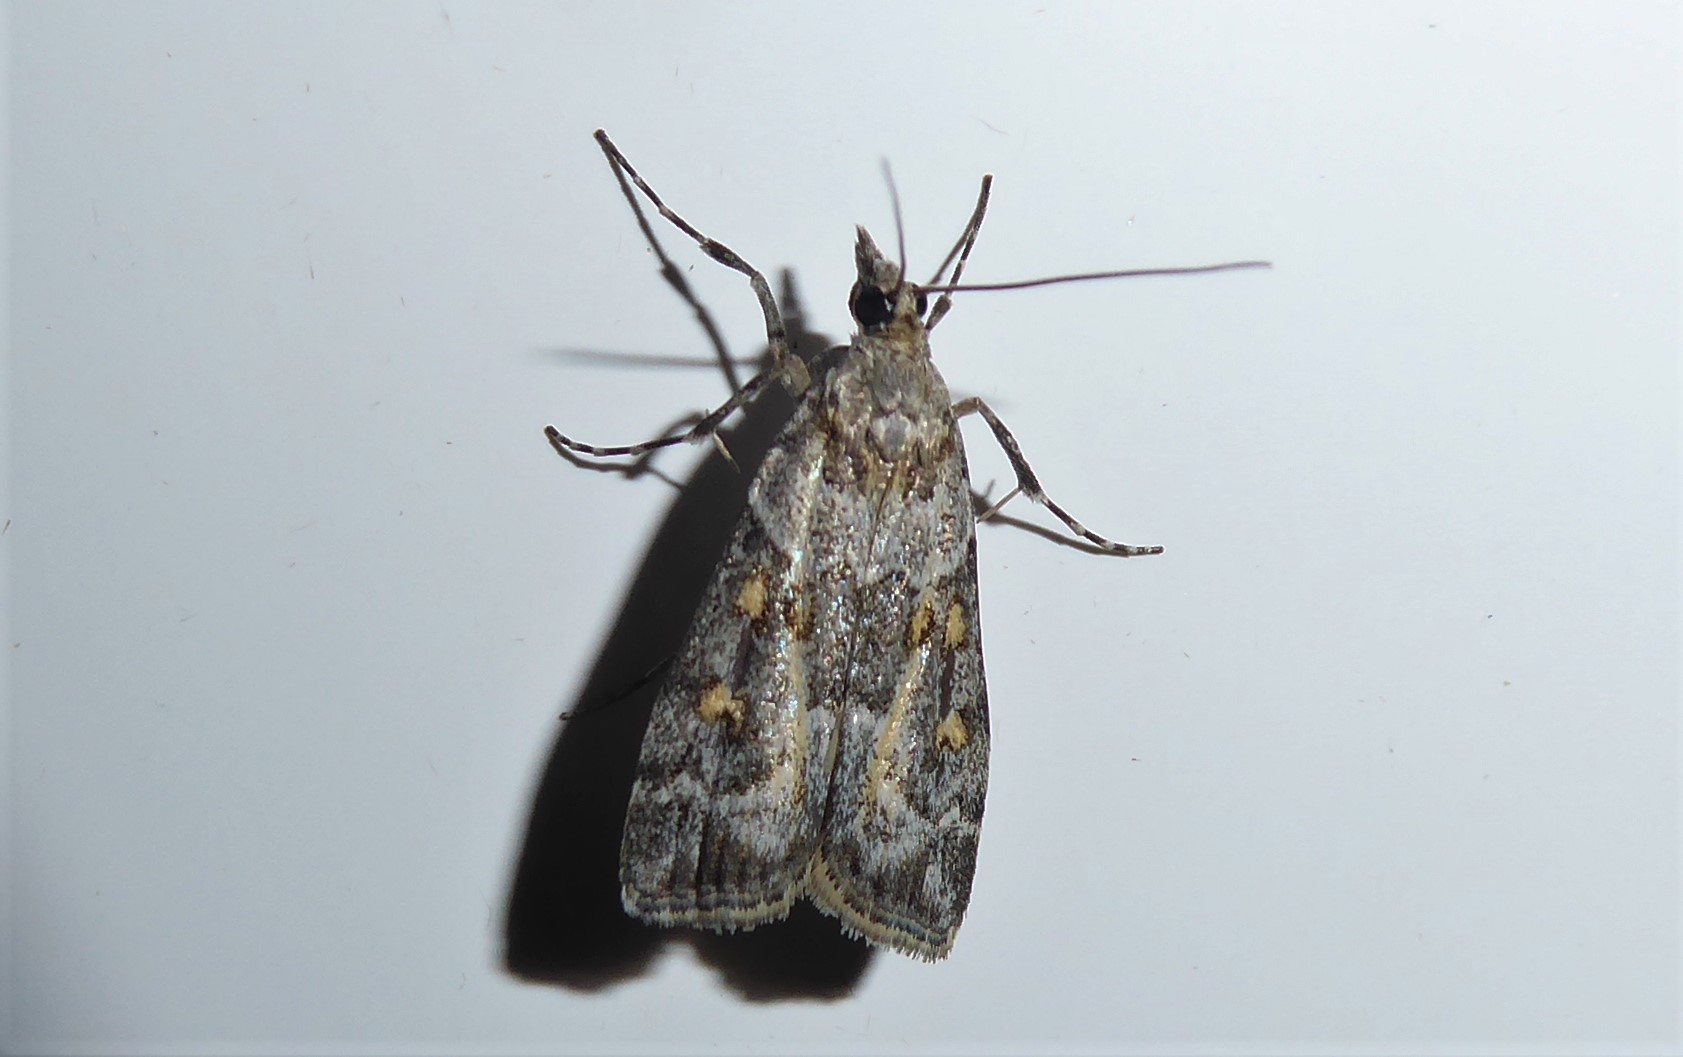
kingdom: Animalia
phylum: Arthropoda
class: Insecta
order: Lepidoptera
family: Crambidae
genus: Eudonia
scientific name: Eudonia diphtheralis
